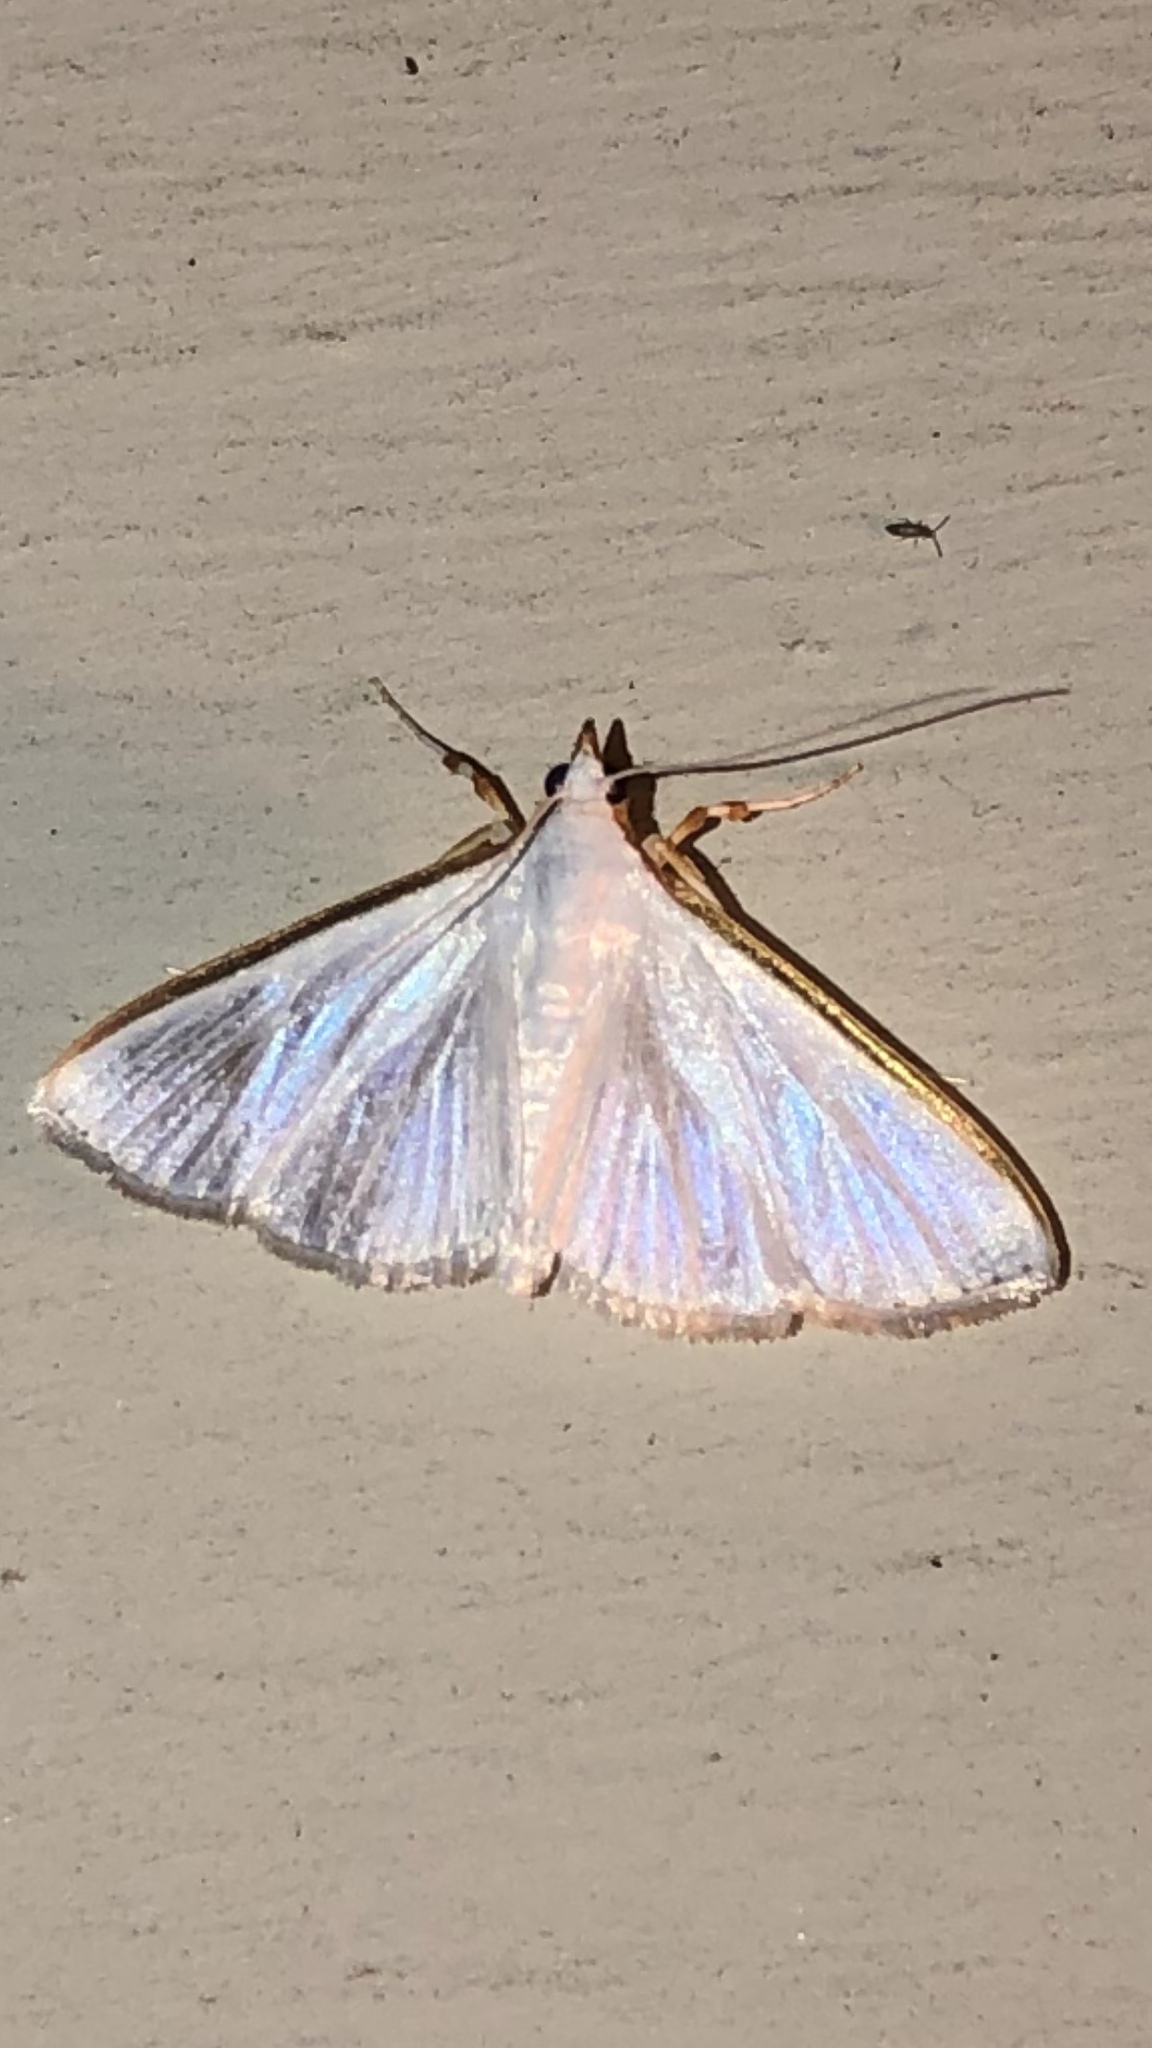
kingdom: Animalia
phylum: Arthropoda
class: Insecta
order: Lepidoptera
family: Crambidae
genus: Diaphania
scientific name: Diaphania costata
